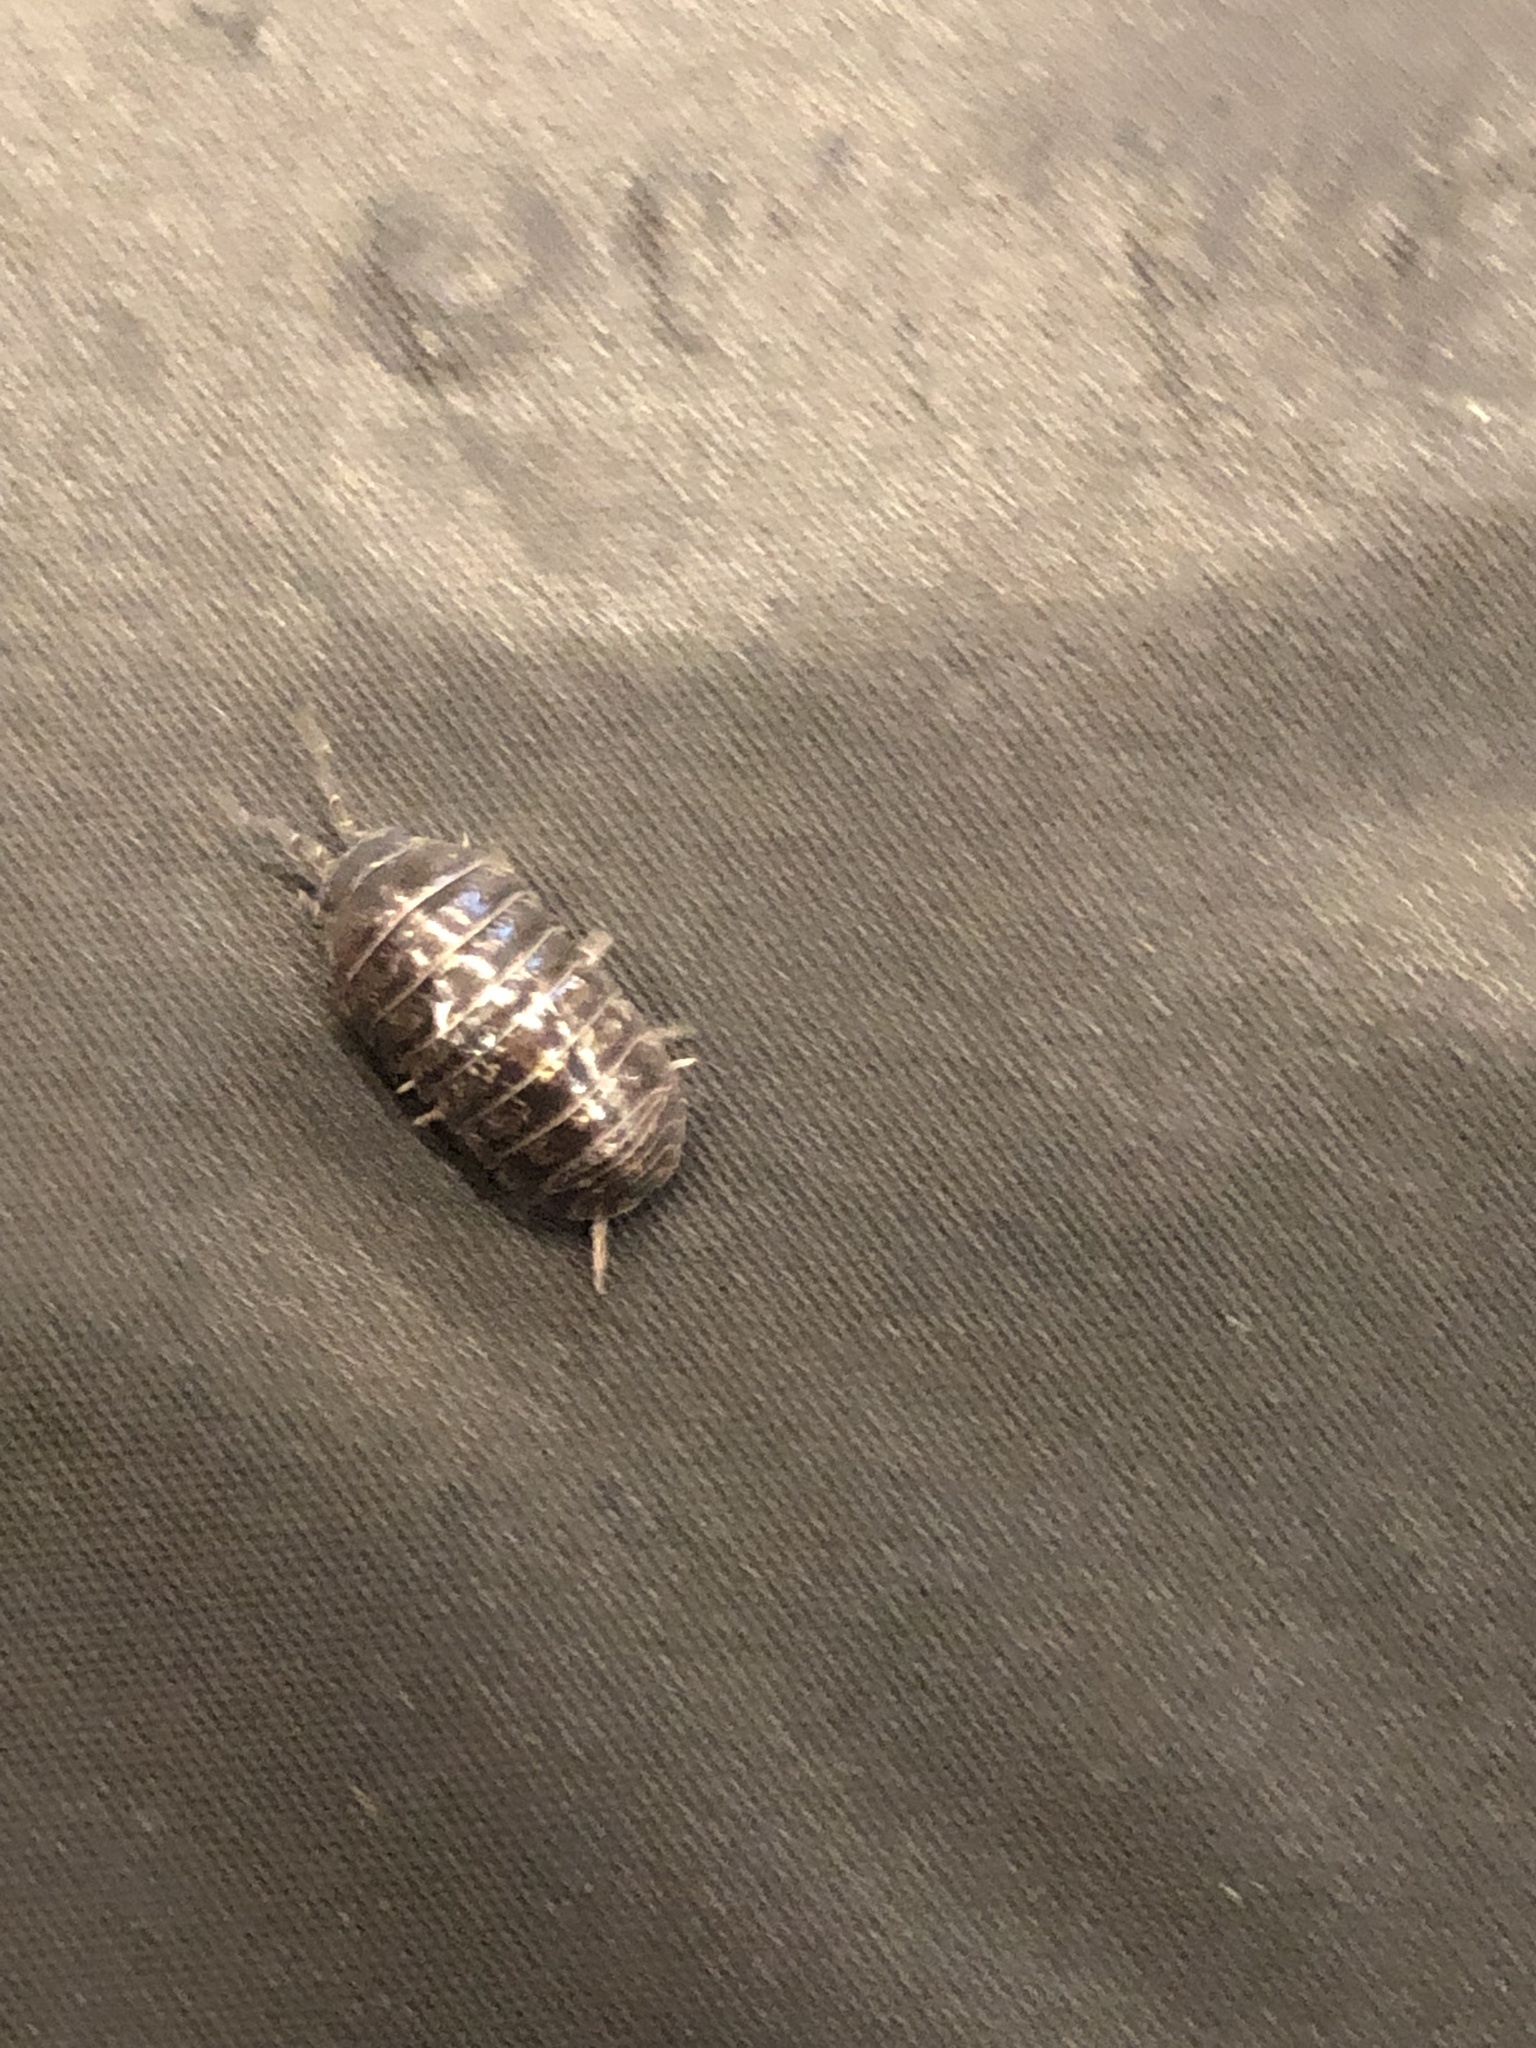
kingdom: Animalia
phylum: Arthropoda
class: Malacostraca
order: Isopoda
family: Armadillidiidae
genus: Armadillidium
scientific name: Armadillidium vulgare
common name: Common pill woodlouse
